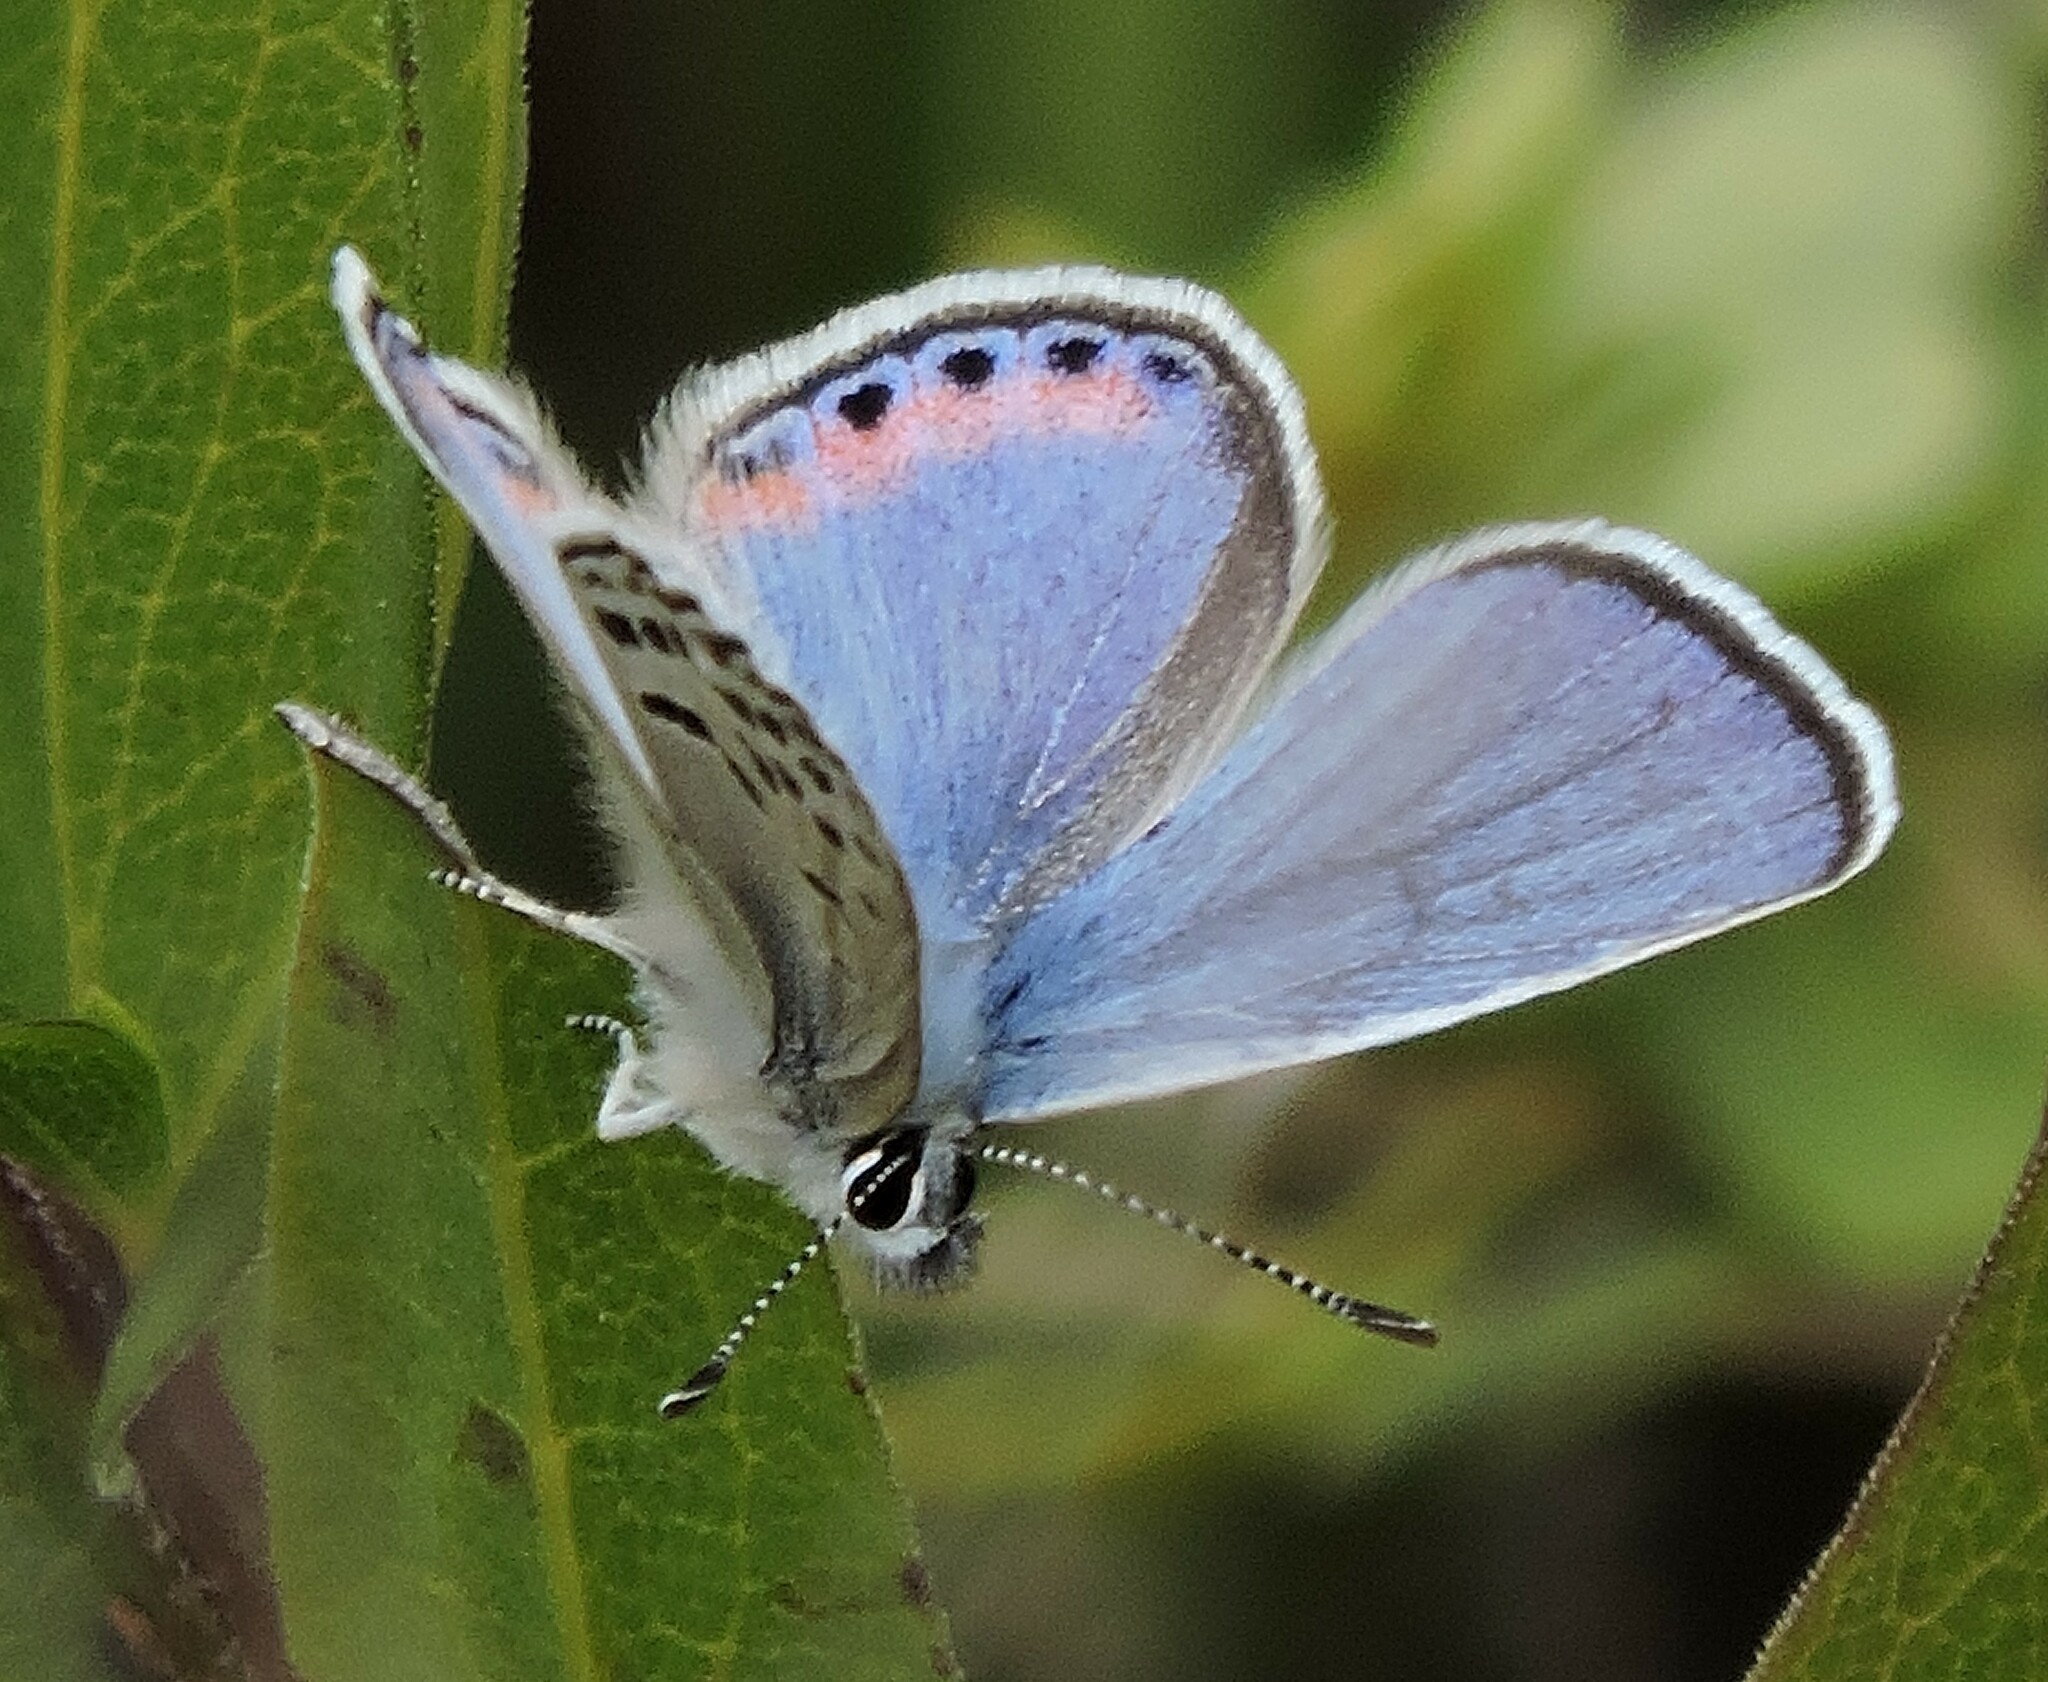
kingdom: Animalia
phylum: Arthropoda
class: Insecta
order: Lepidoptera
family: Lycaenidae
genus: Icaricia
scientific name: Icaricia acmon
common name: Acmon blue
